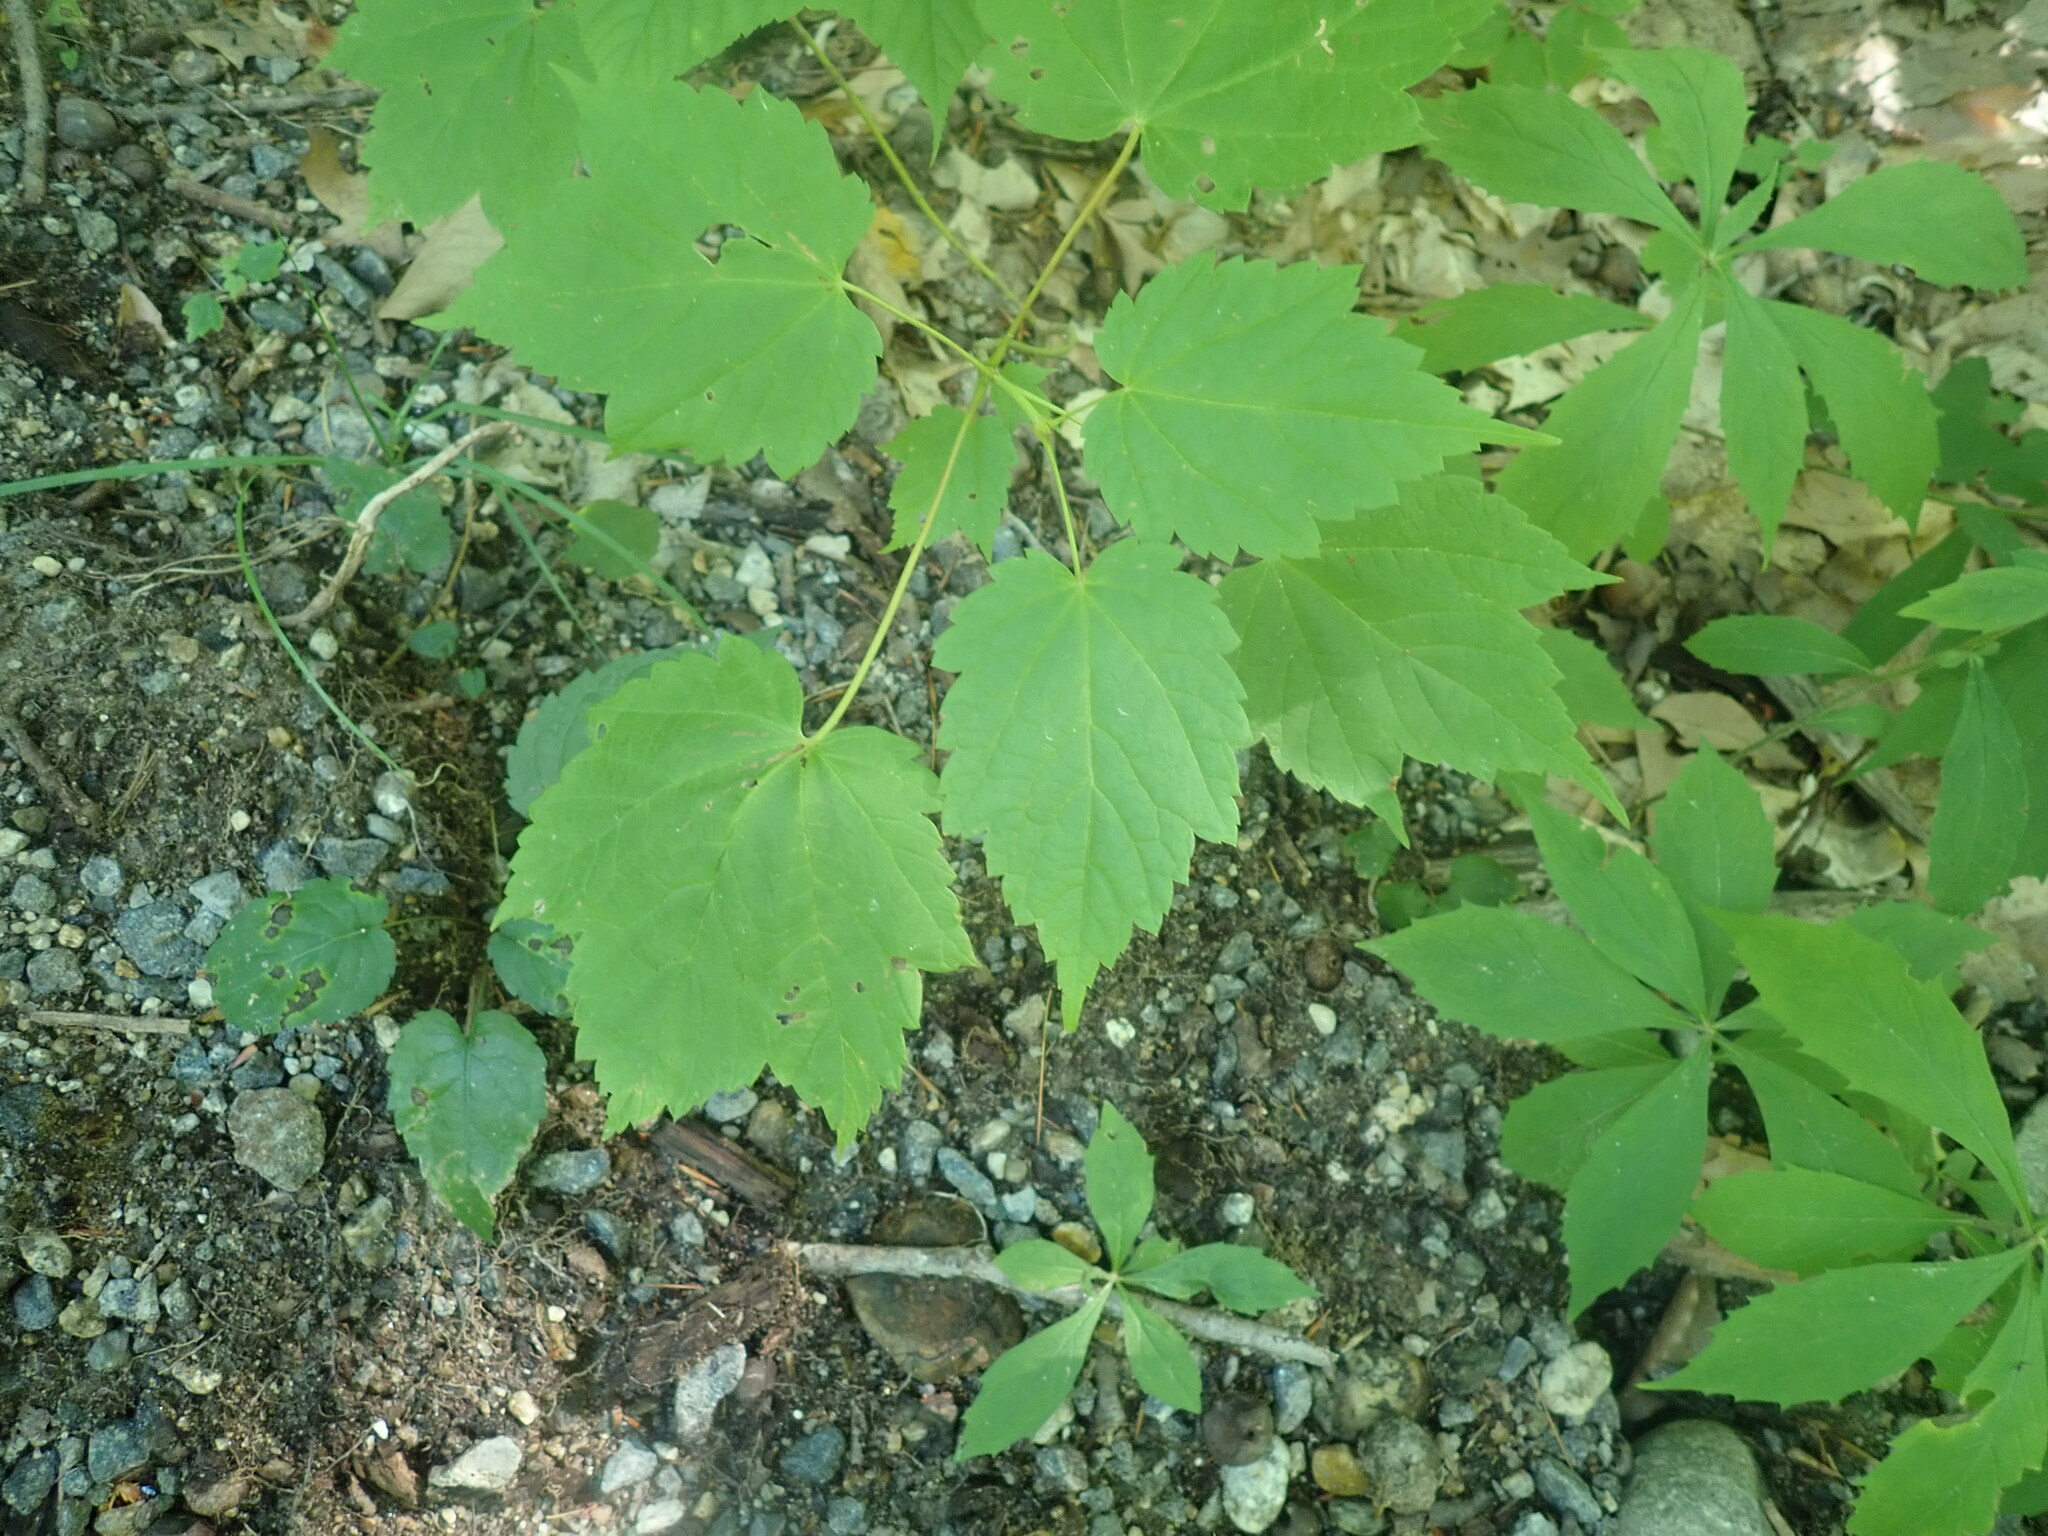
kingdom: Plantae
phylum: Tracheophyta
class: Magnoliopsida
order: Sapindales
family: Sapindaceae
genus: Acer
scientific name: Acer spicatum
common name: Mountain maple
